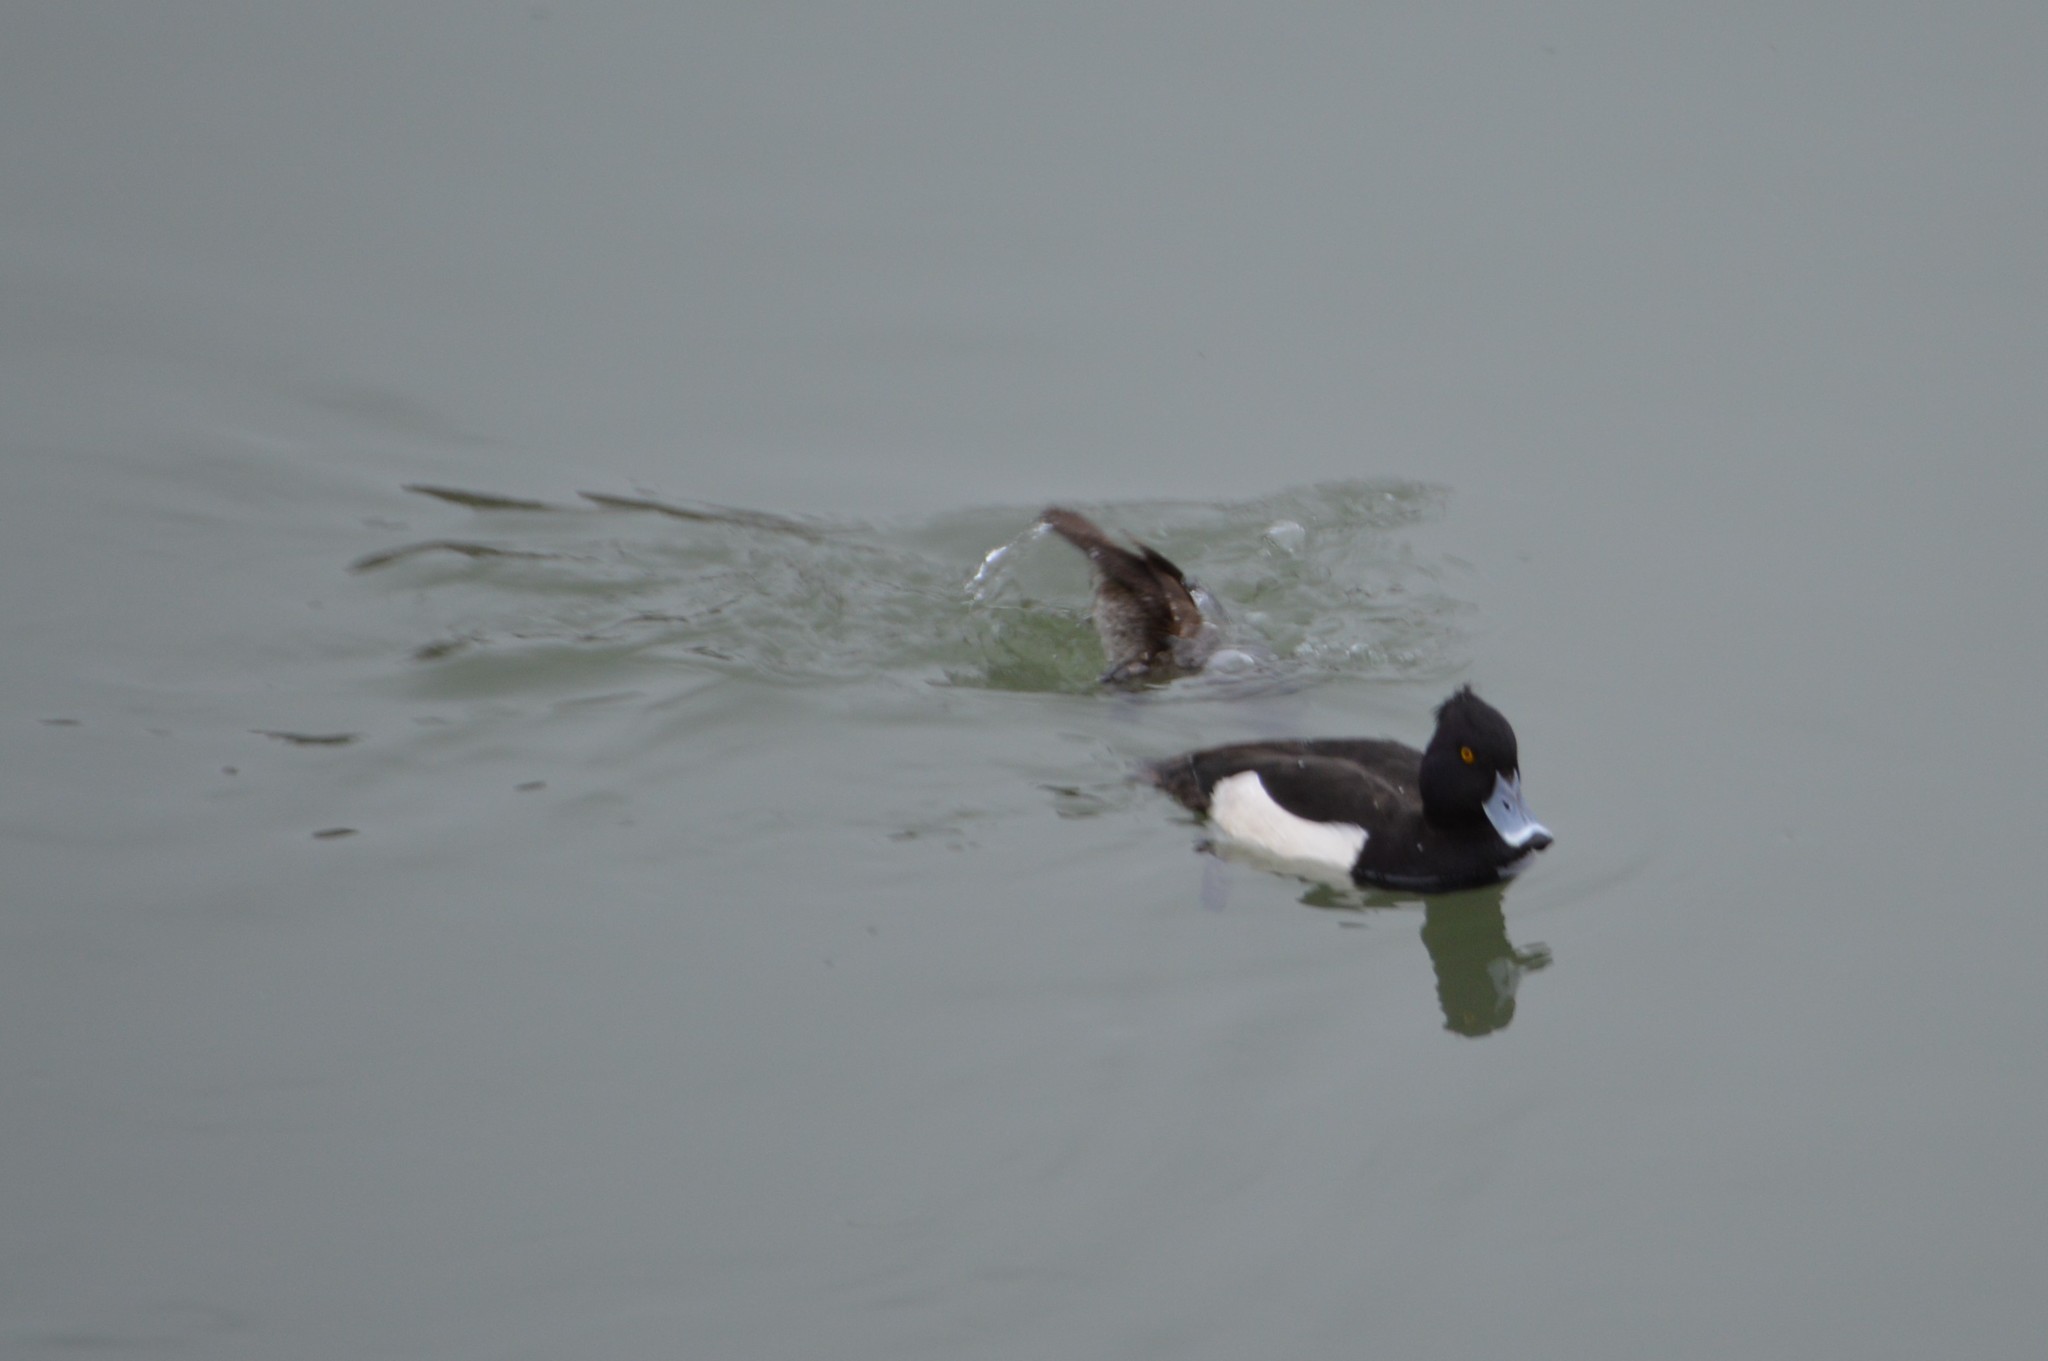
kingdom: Animalia
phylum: Chordata
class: Aves
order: Anseriformes
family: Anatidae
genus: Aythya
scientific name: Aythya fuligula
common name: Tufted duck
